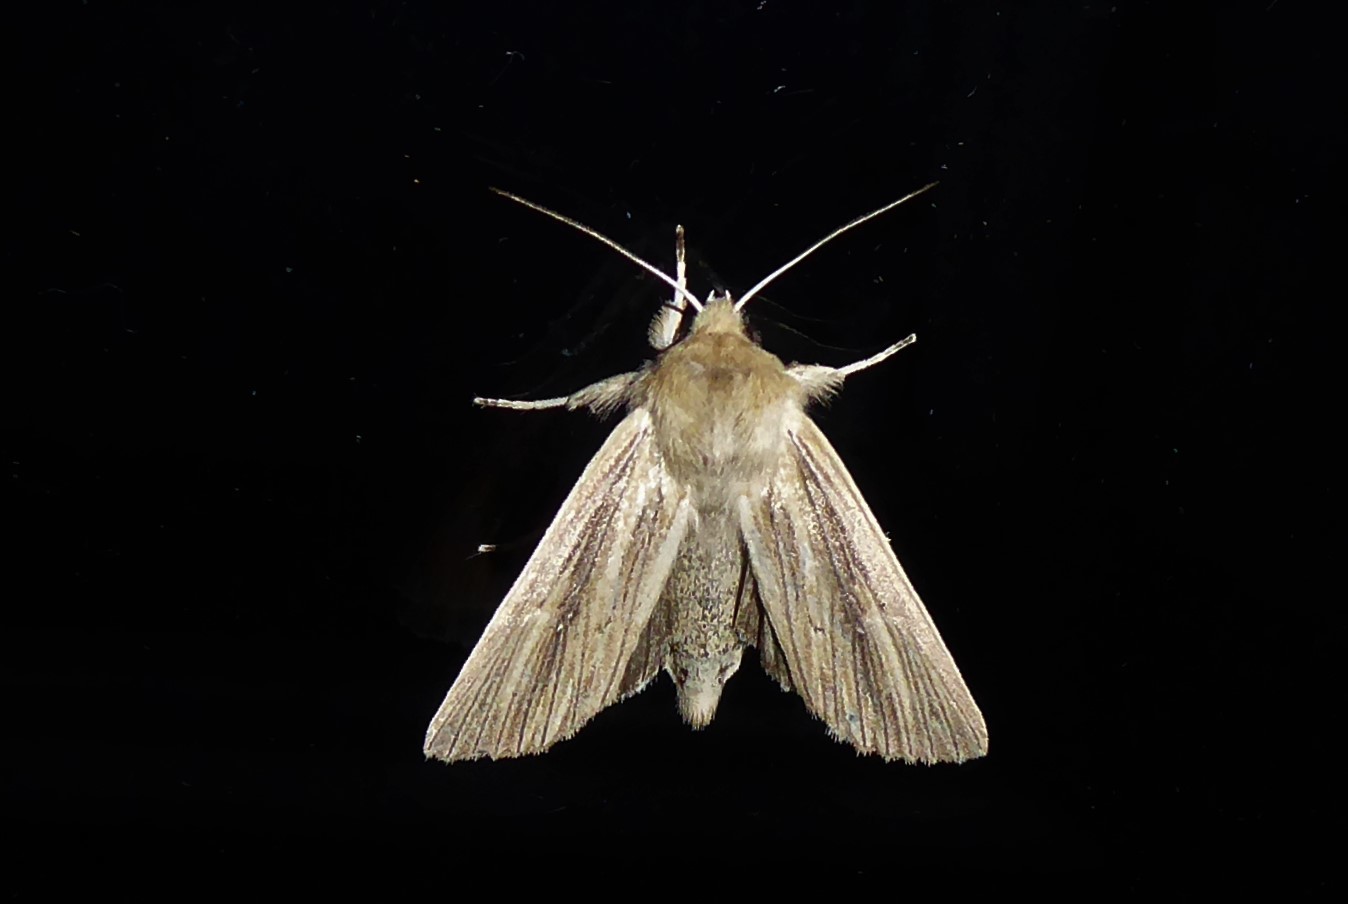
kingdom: Animalia
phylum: Arthropoda
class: Insecta
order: Lepidoptera
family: Noctuidae
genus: Ichneutica
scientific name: Ichneutica arotis
